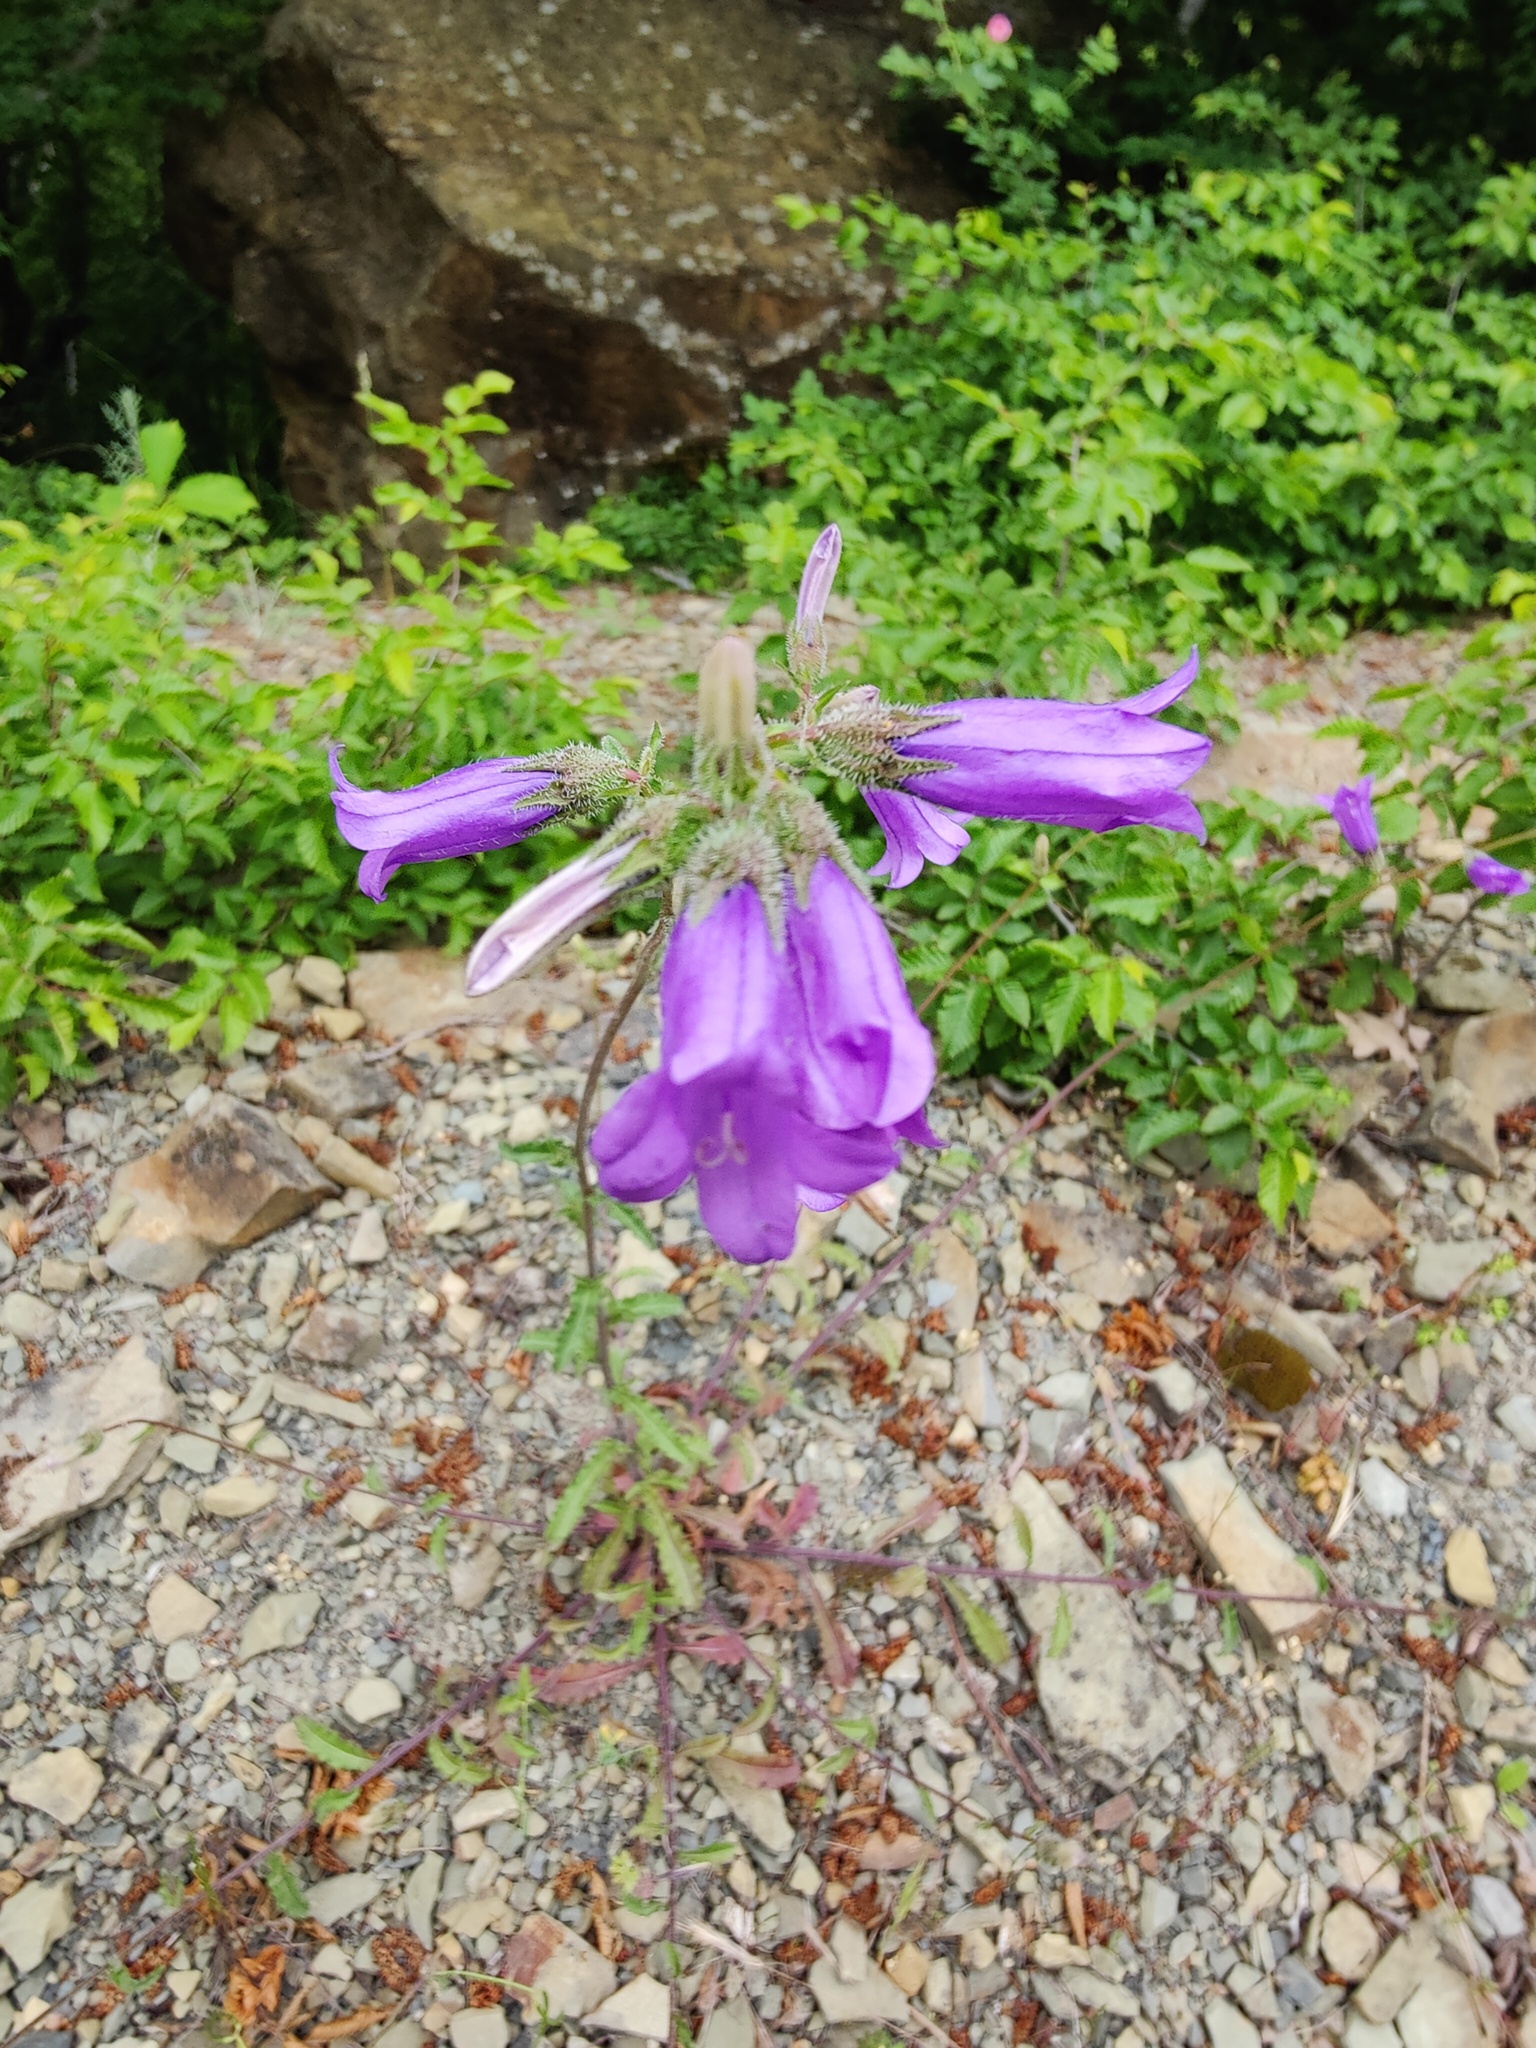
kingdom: Plantae
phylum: Tracheophyta
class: Magnoliopsida
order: Asterales
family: Campanulaceae
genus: Campanula
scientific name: Campanula komarovii
